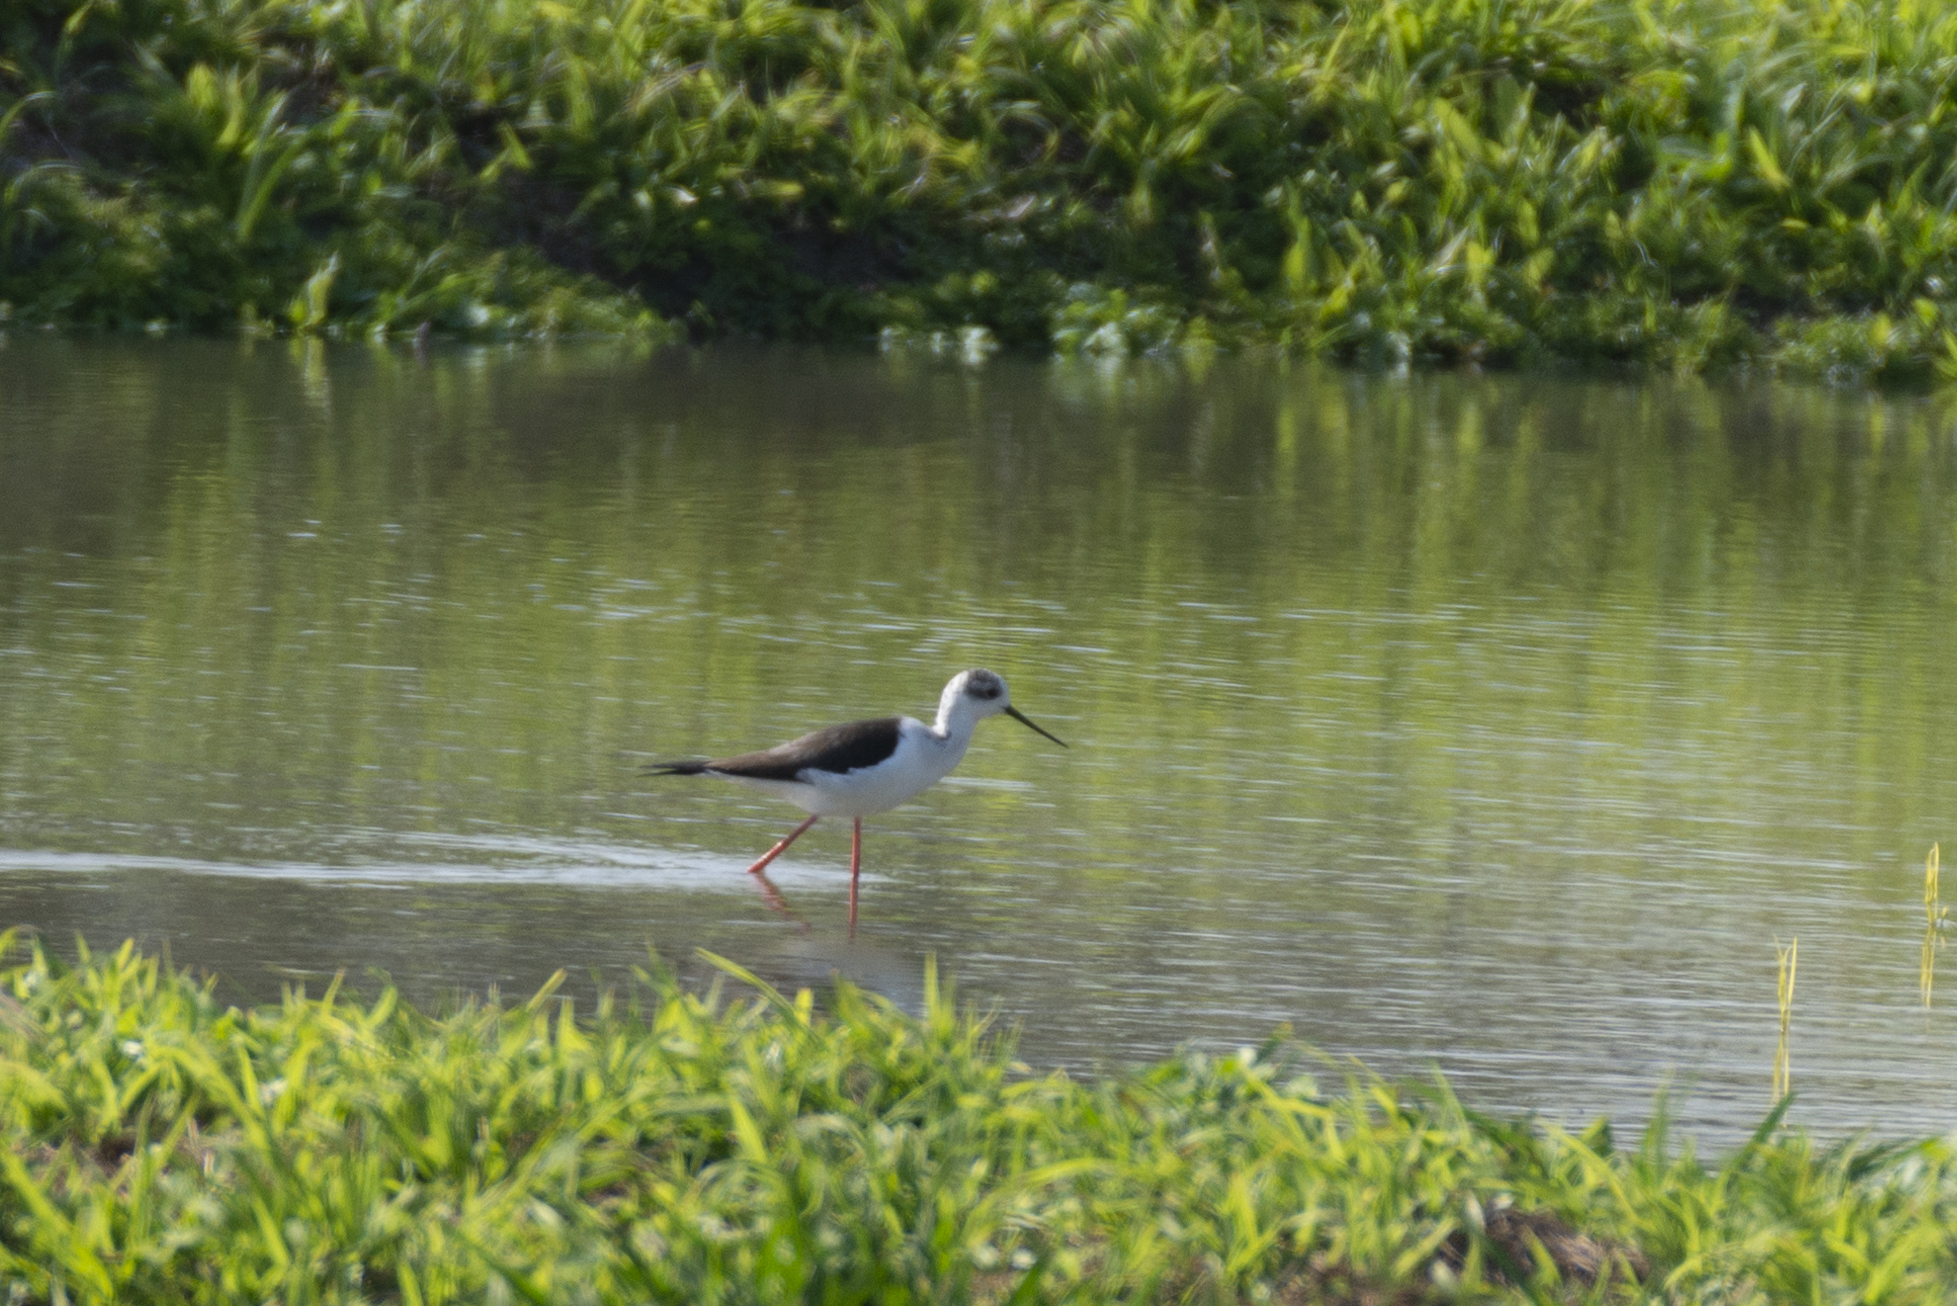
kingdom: Animalia
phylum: Chordata
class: Aves
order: Charadriiformes
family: Recurvirostridae
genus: Himantopus
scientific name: Himantopus himantopus
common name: Black-winged stilt
